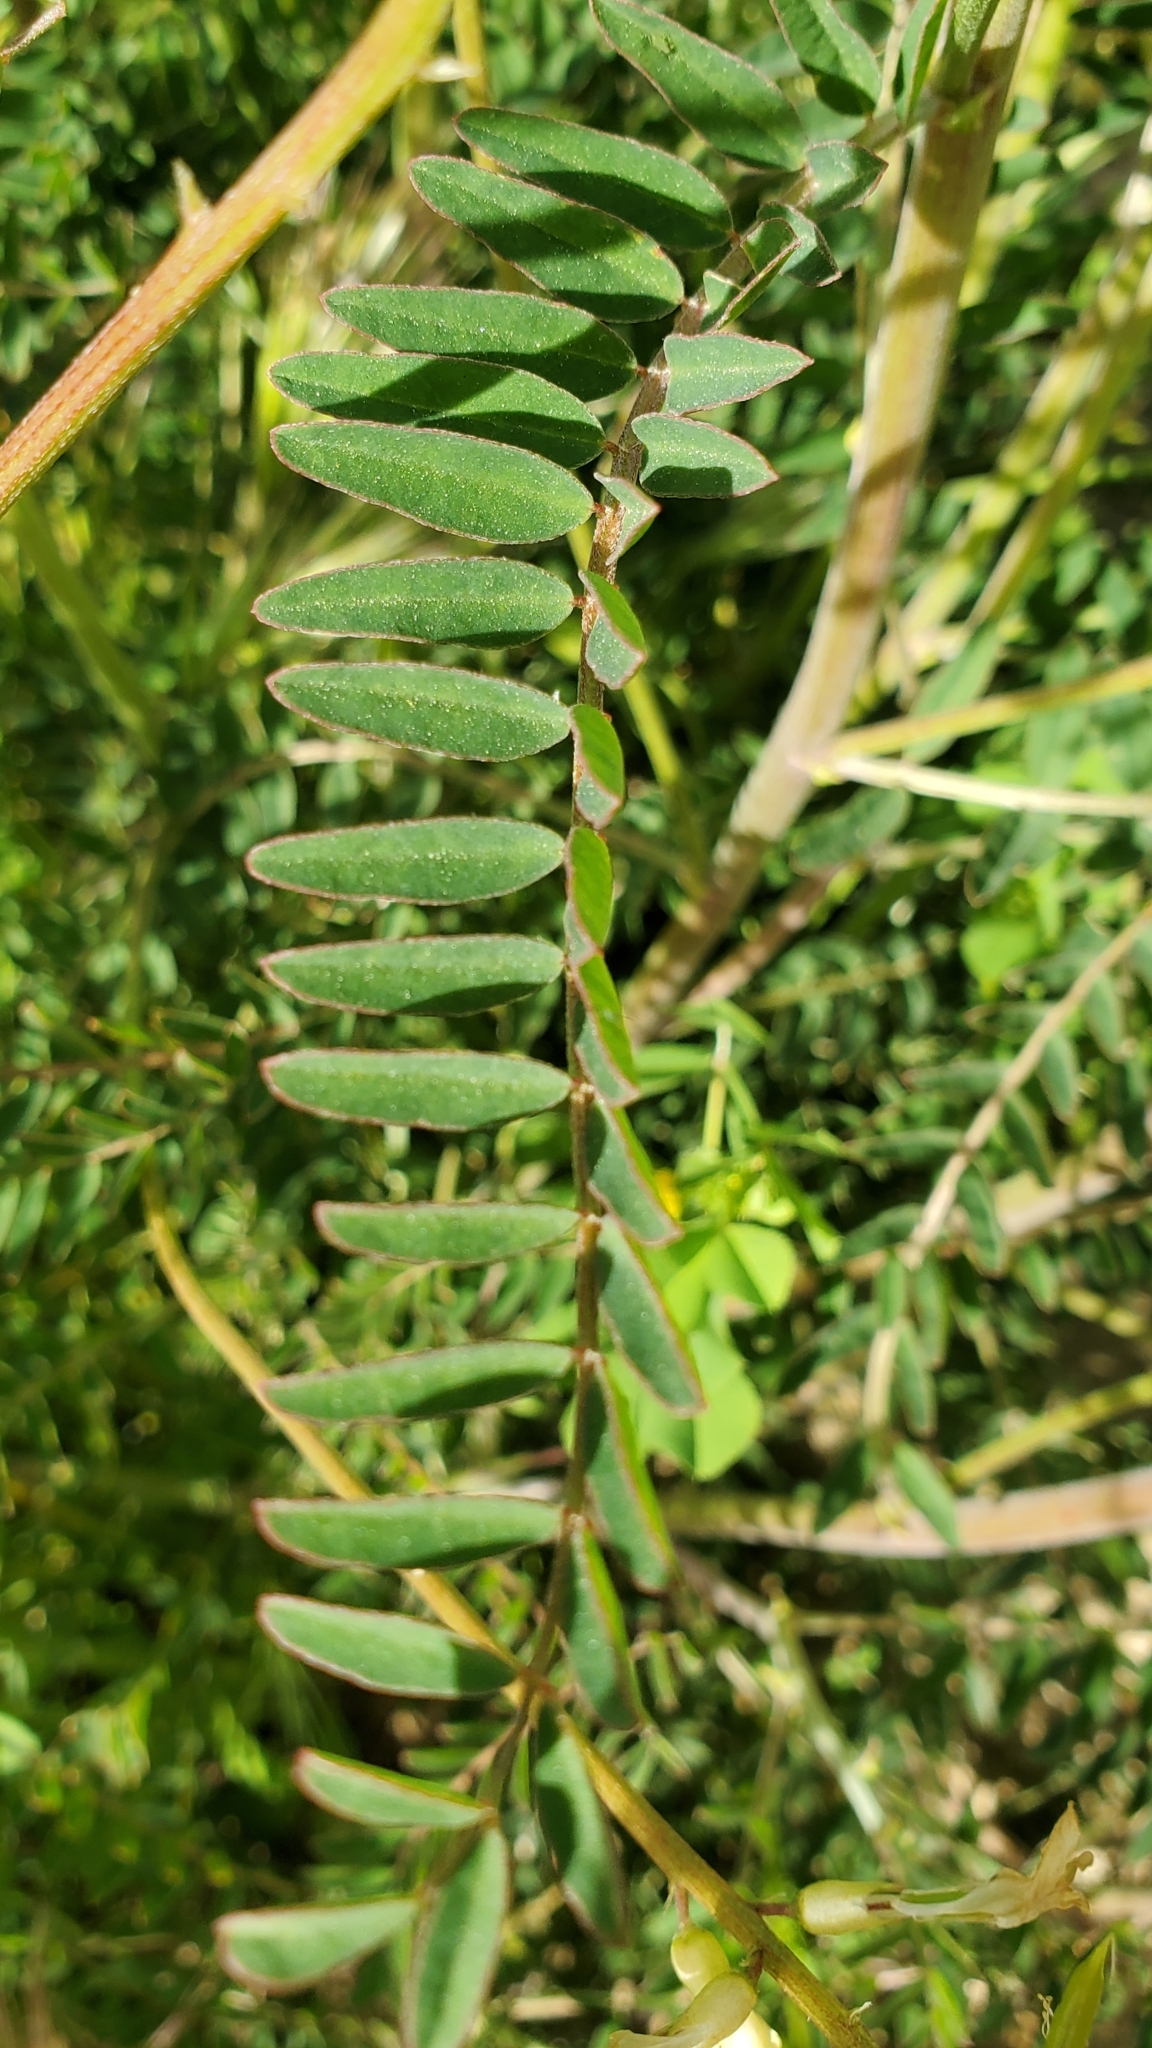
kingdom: Plantae
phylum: Tracheophyta
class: Magnoliopsida
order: Fabales
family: Fabaceae
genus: Astragalus
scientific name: Astragalus trichopodus
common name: Santa barbara milk-vetch
